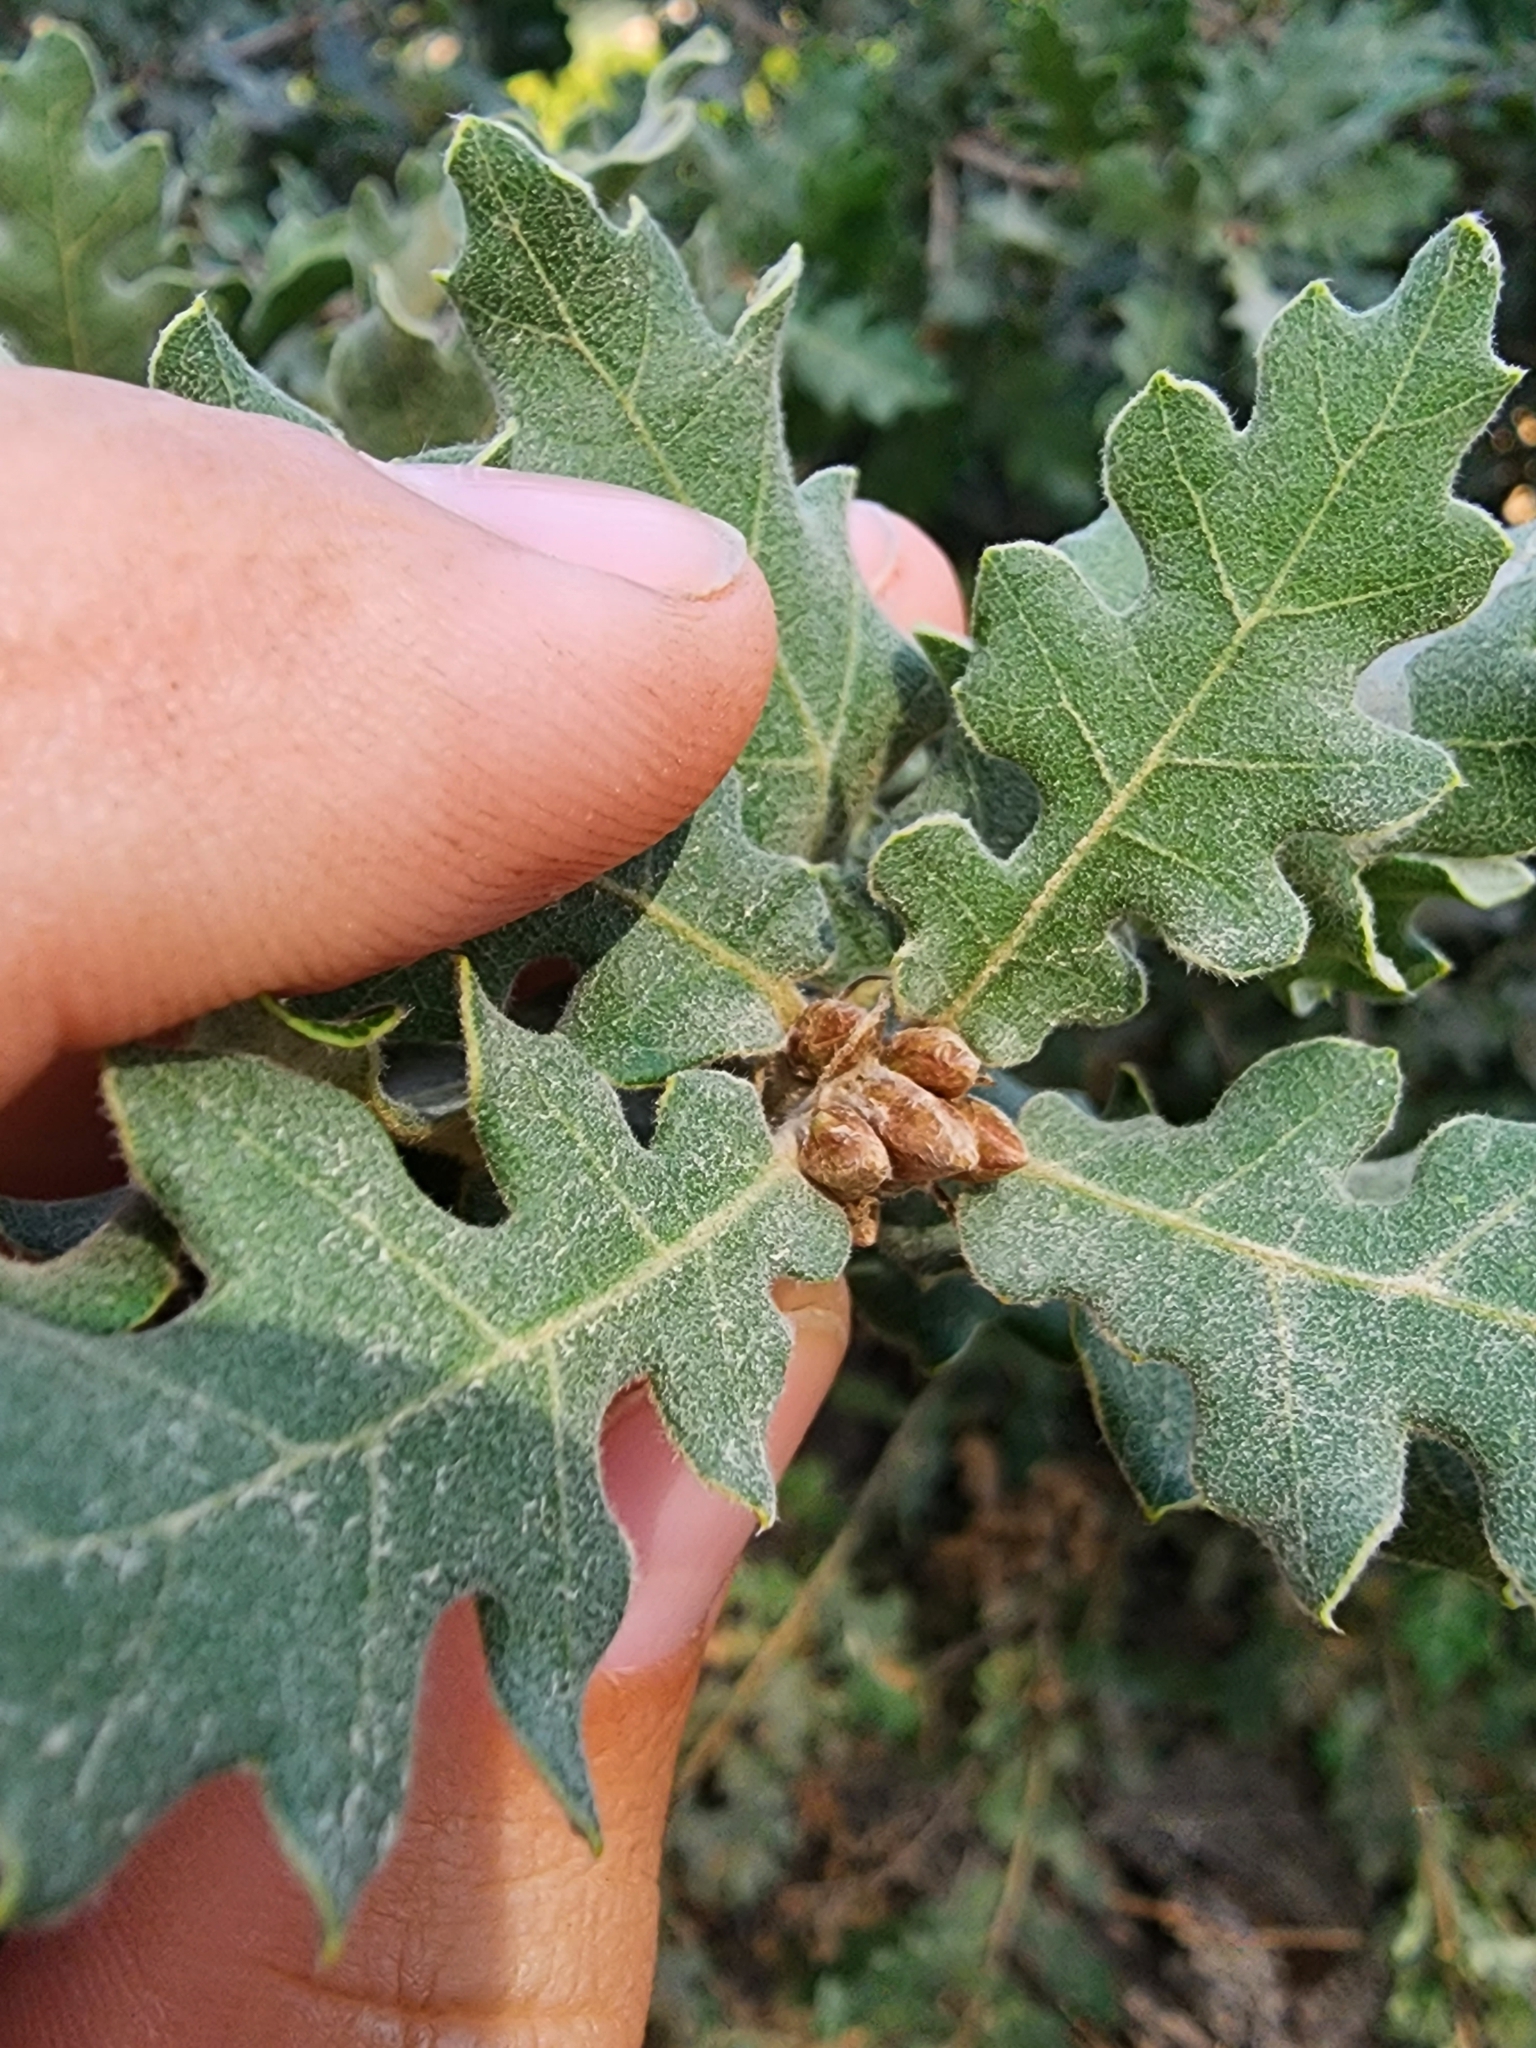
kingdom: Plantae
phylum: Tracheophyta
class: Magnoliopsida
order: Fagales
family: Fagaceae
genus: Quercus
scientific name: Quercus pubescens
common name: Downy oak
